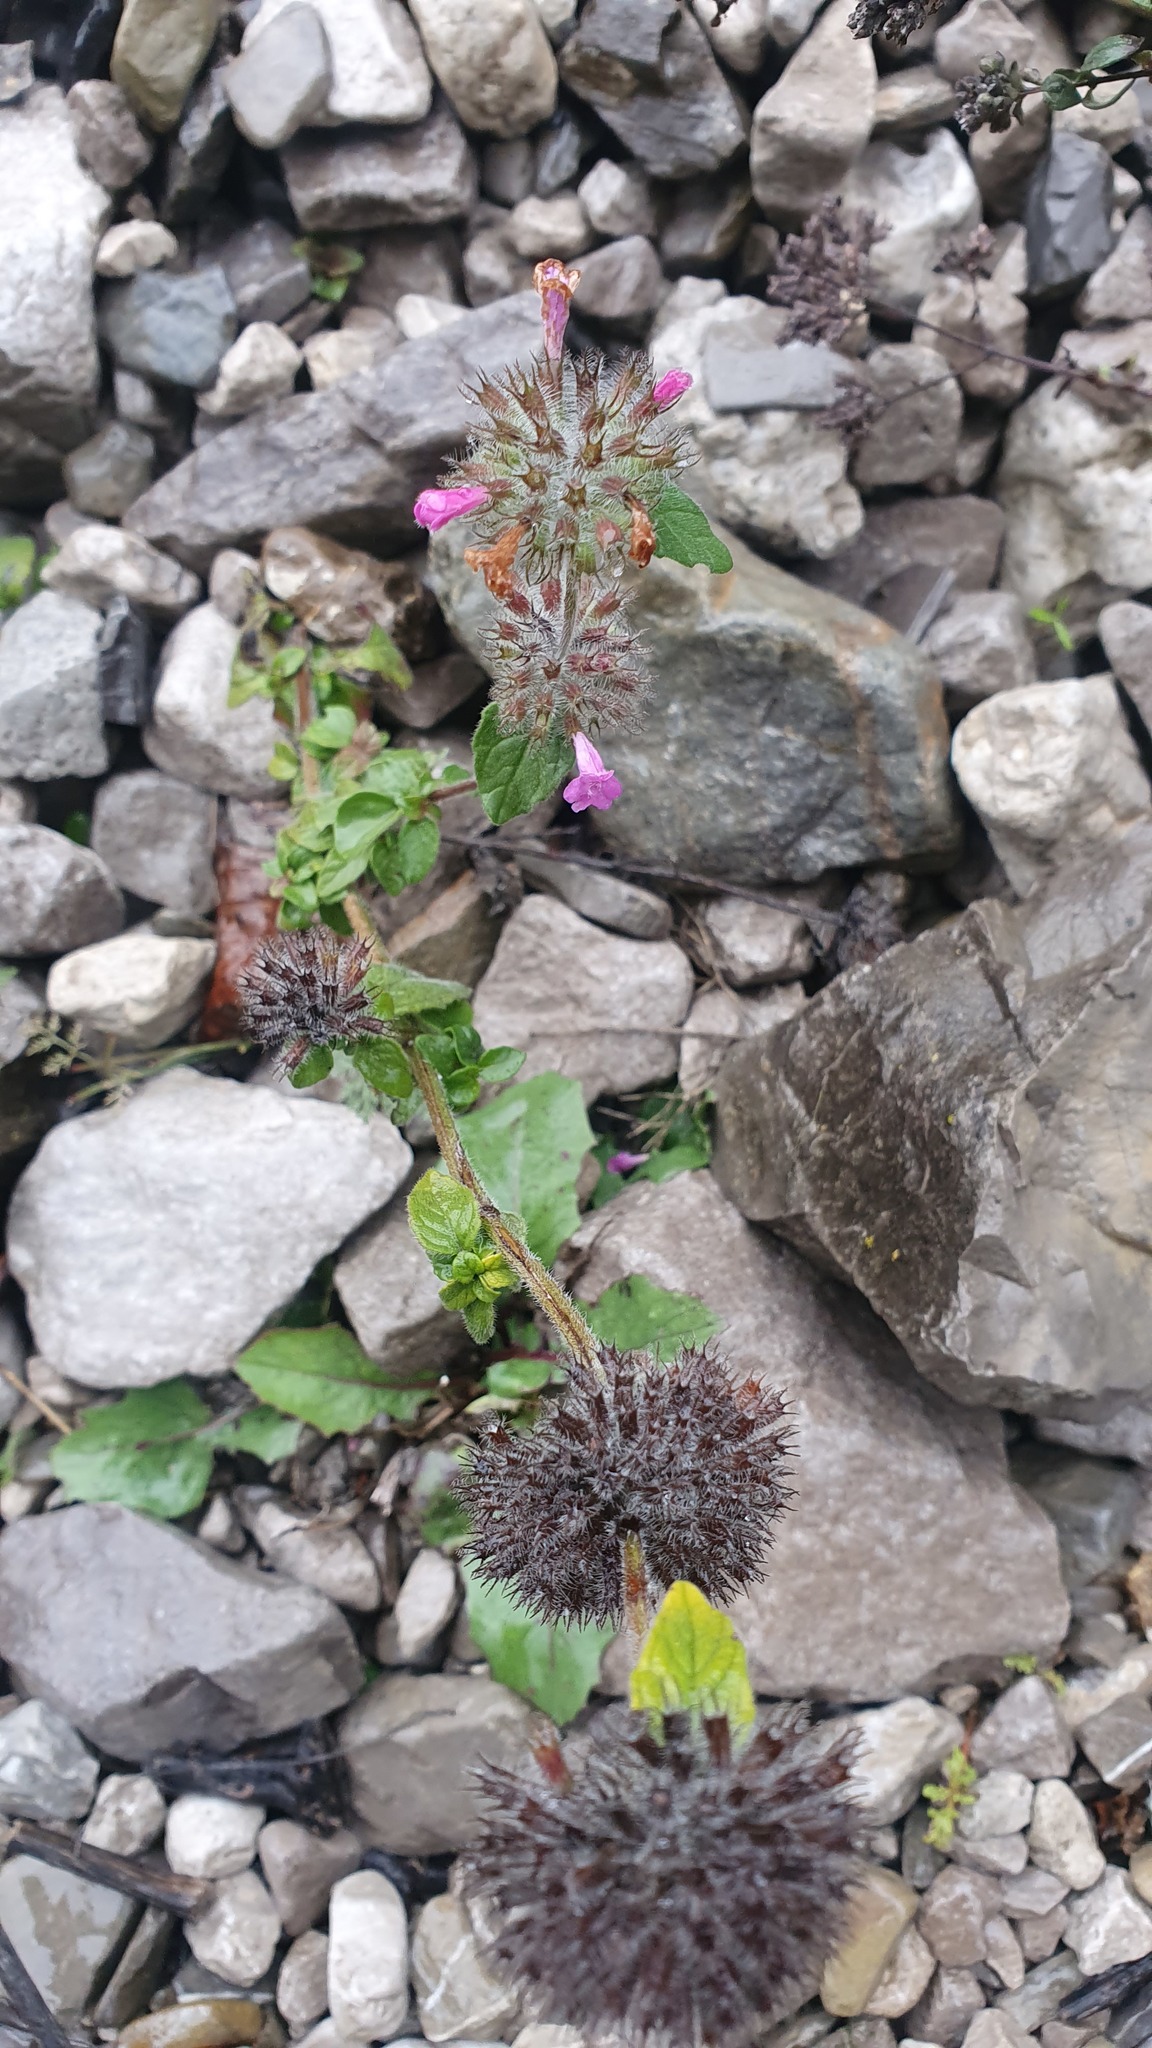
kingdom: Plantae
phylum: Tracheophyta
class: Magnoliopsida
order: Lamiales
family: Lamiaceae
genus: Clinopodium
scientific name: Clinopodium vulgare
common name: Wild basil
